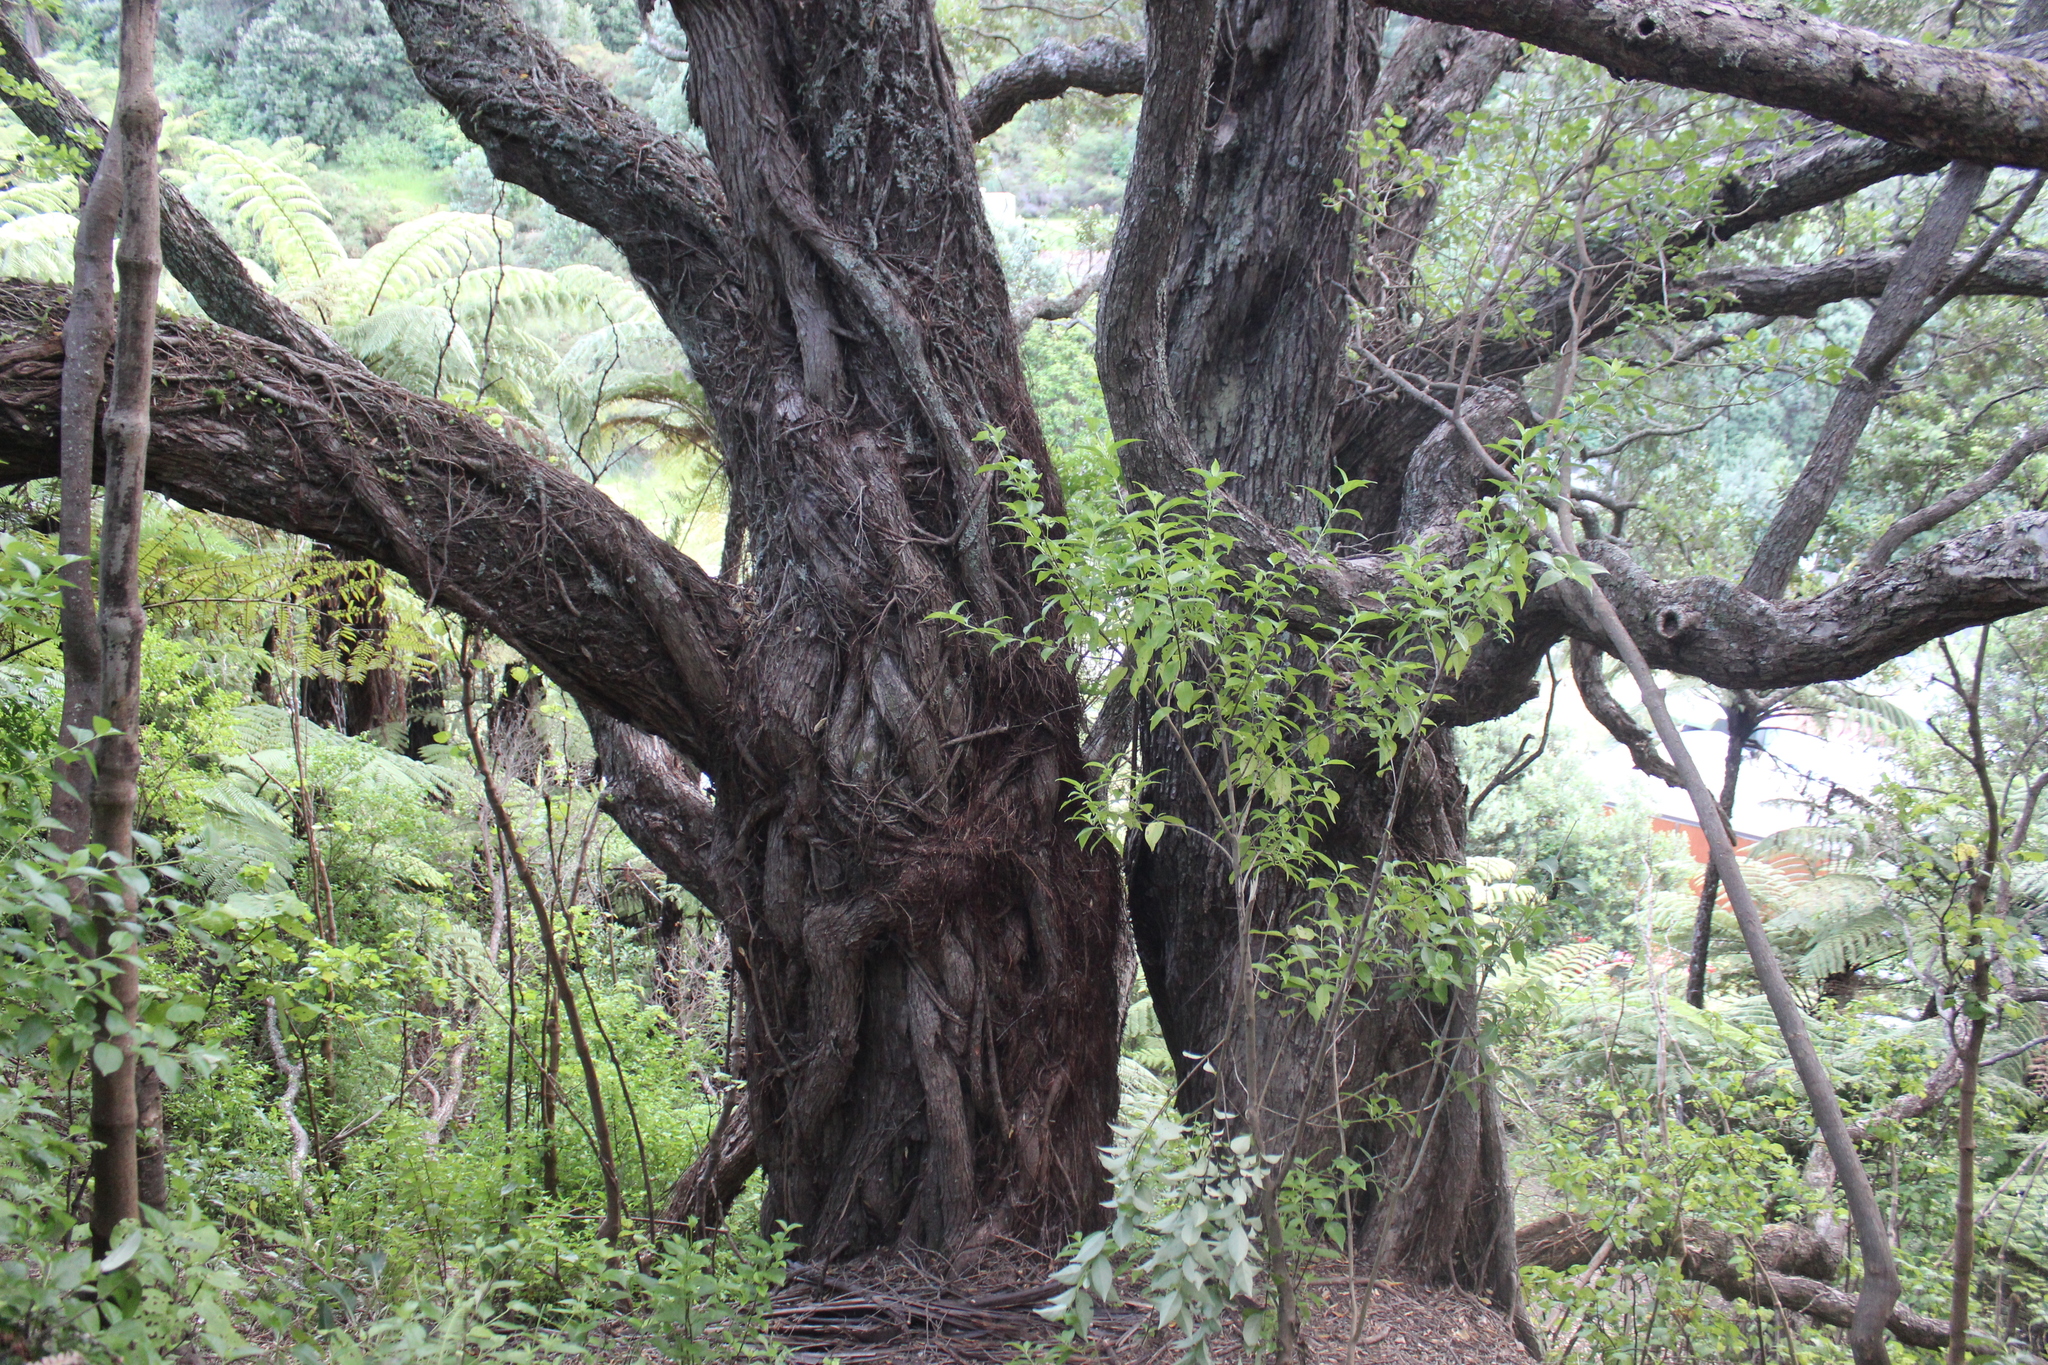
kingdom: Plantae
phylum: Tracheophyta
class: Magnoliopsida
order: Myrtales
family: Myrtaceae
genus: Metrosideros
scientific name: Metrosideros excelsa
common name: New zealand christmastree
